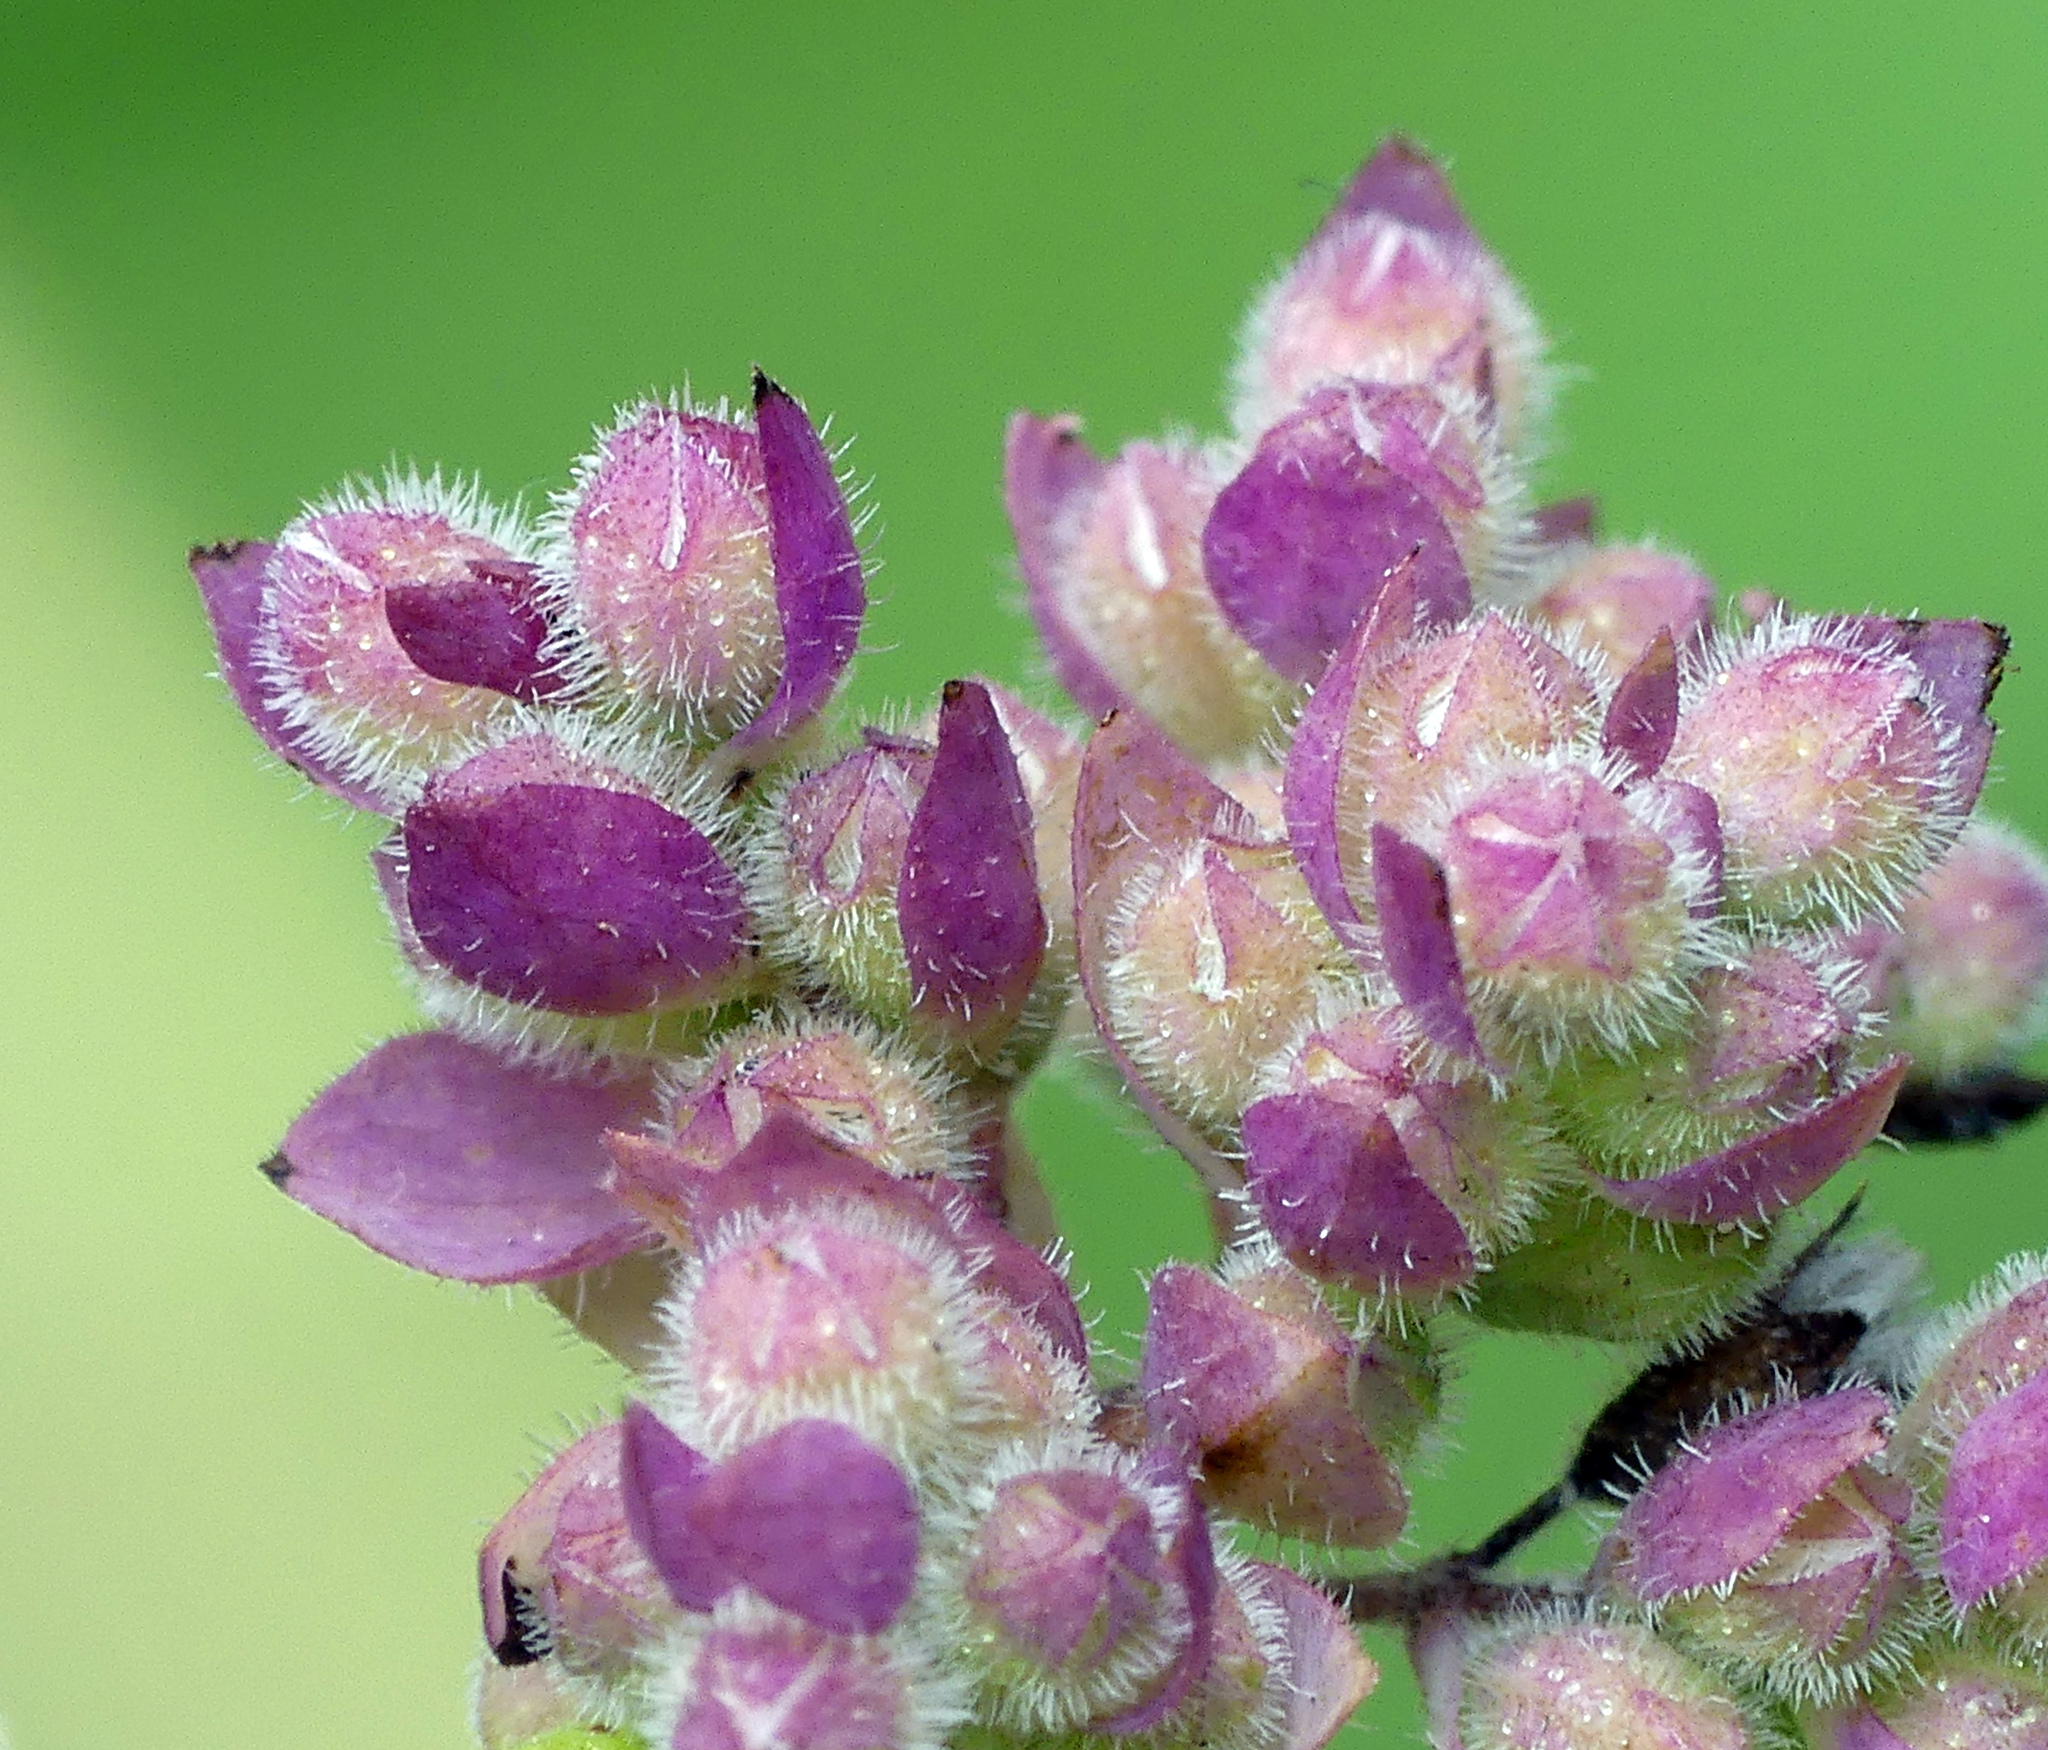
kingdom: Plantae
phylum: Tracheophyta
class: Magnoliopsida
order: Lamiales
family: Lamiaceae
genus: Origanum
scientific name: Origanum vulgare
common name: Wild marjoram
